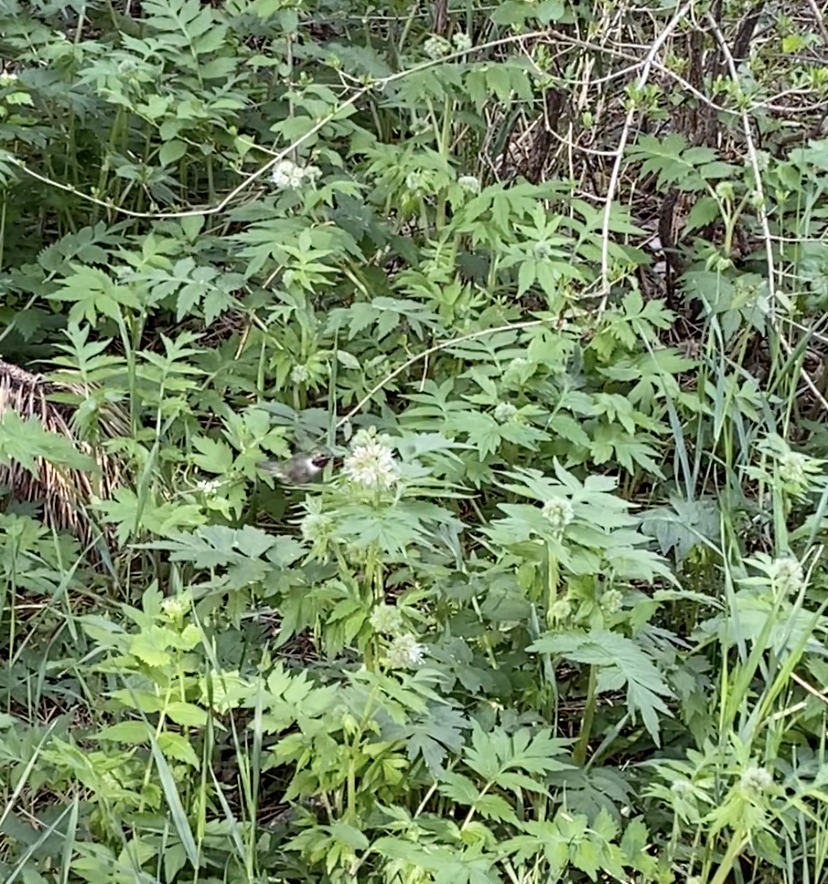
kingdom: Animalia
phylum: Chordata
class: Aves
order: Apodiformes
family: Trochilidae
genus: Selasphorus
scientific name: Selasphorus platycercus
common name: Broad-tailed hummingbird
